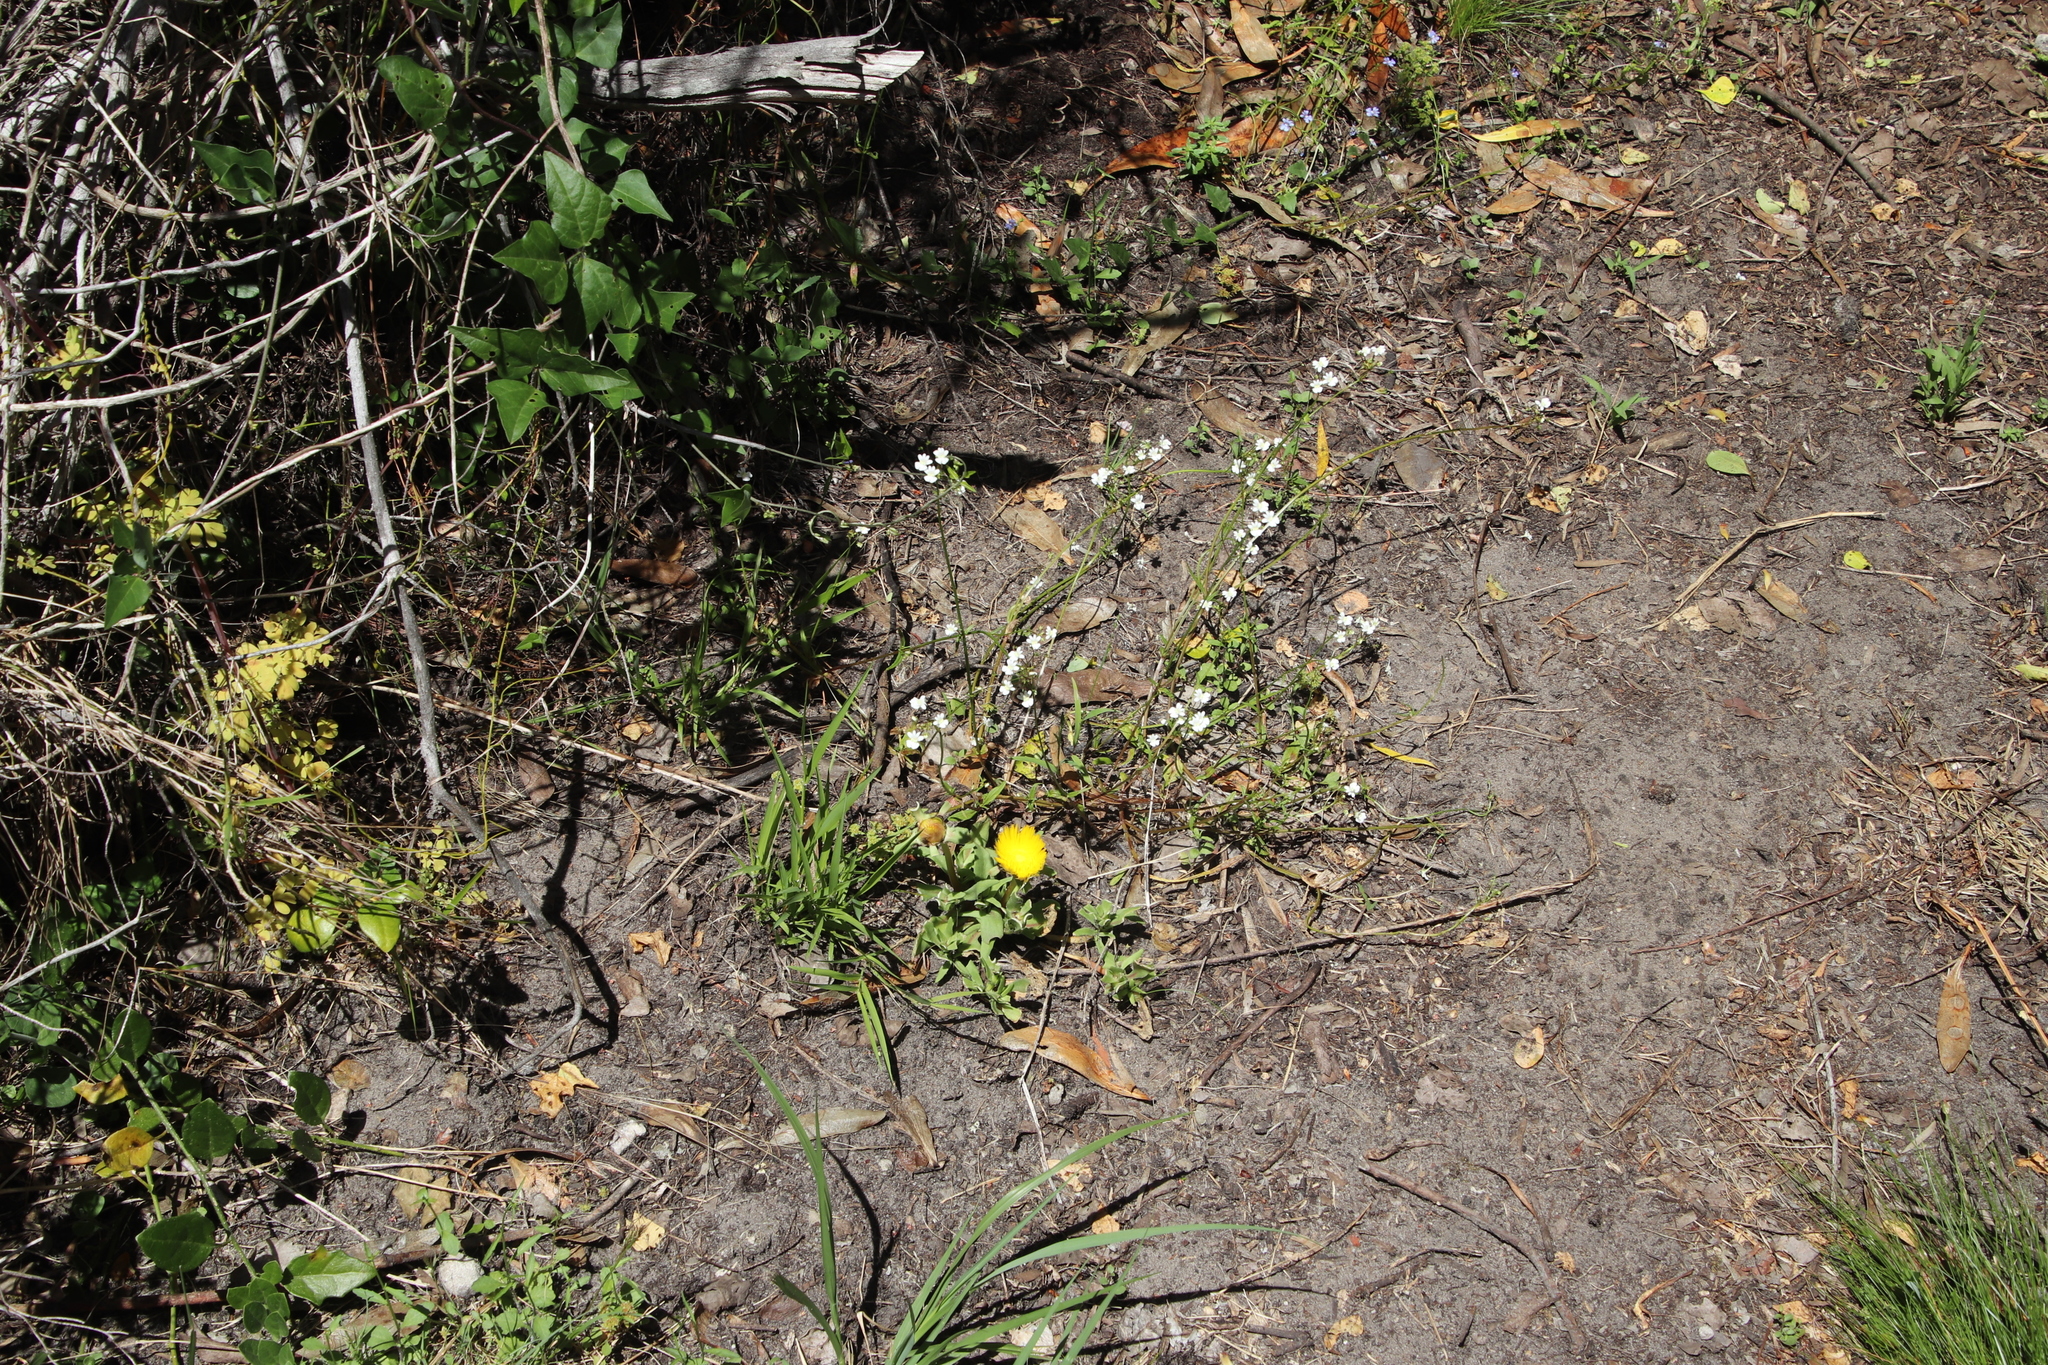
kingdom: Plantae
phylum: Tracheophyta
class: Magnoliopsida
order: Caryophyllales
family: Aizoaceae
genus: Carpanthea
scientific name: Carpanthea pomeridiana
